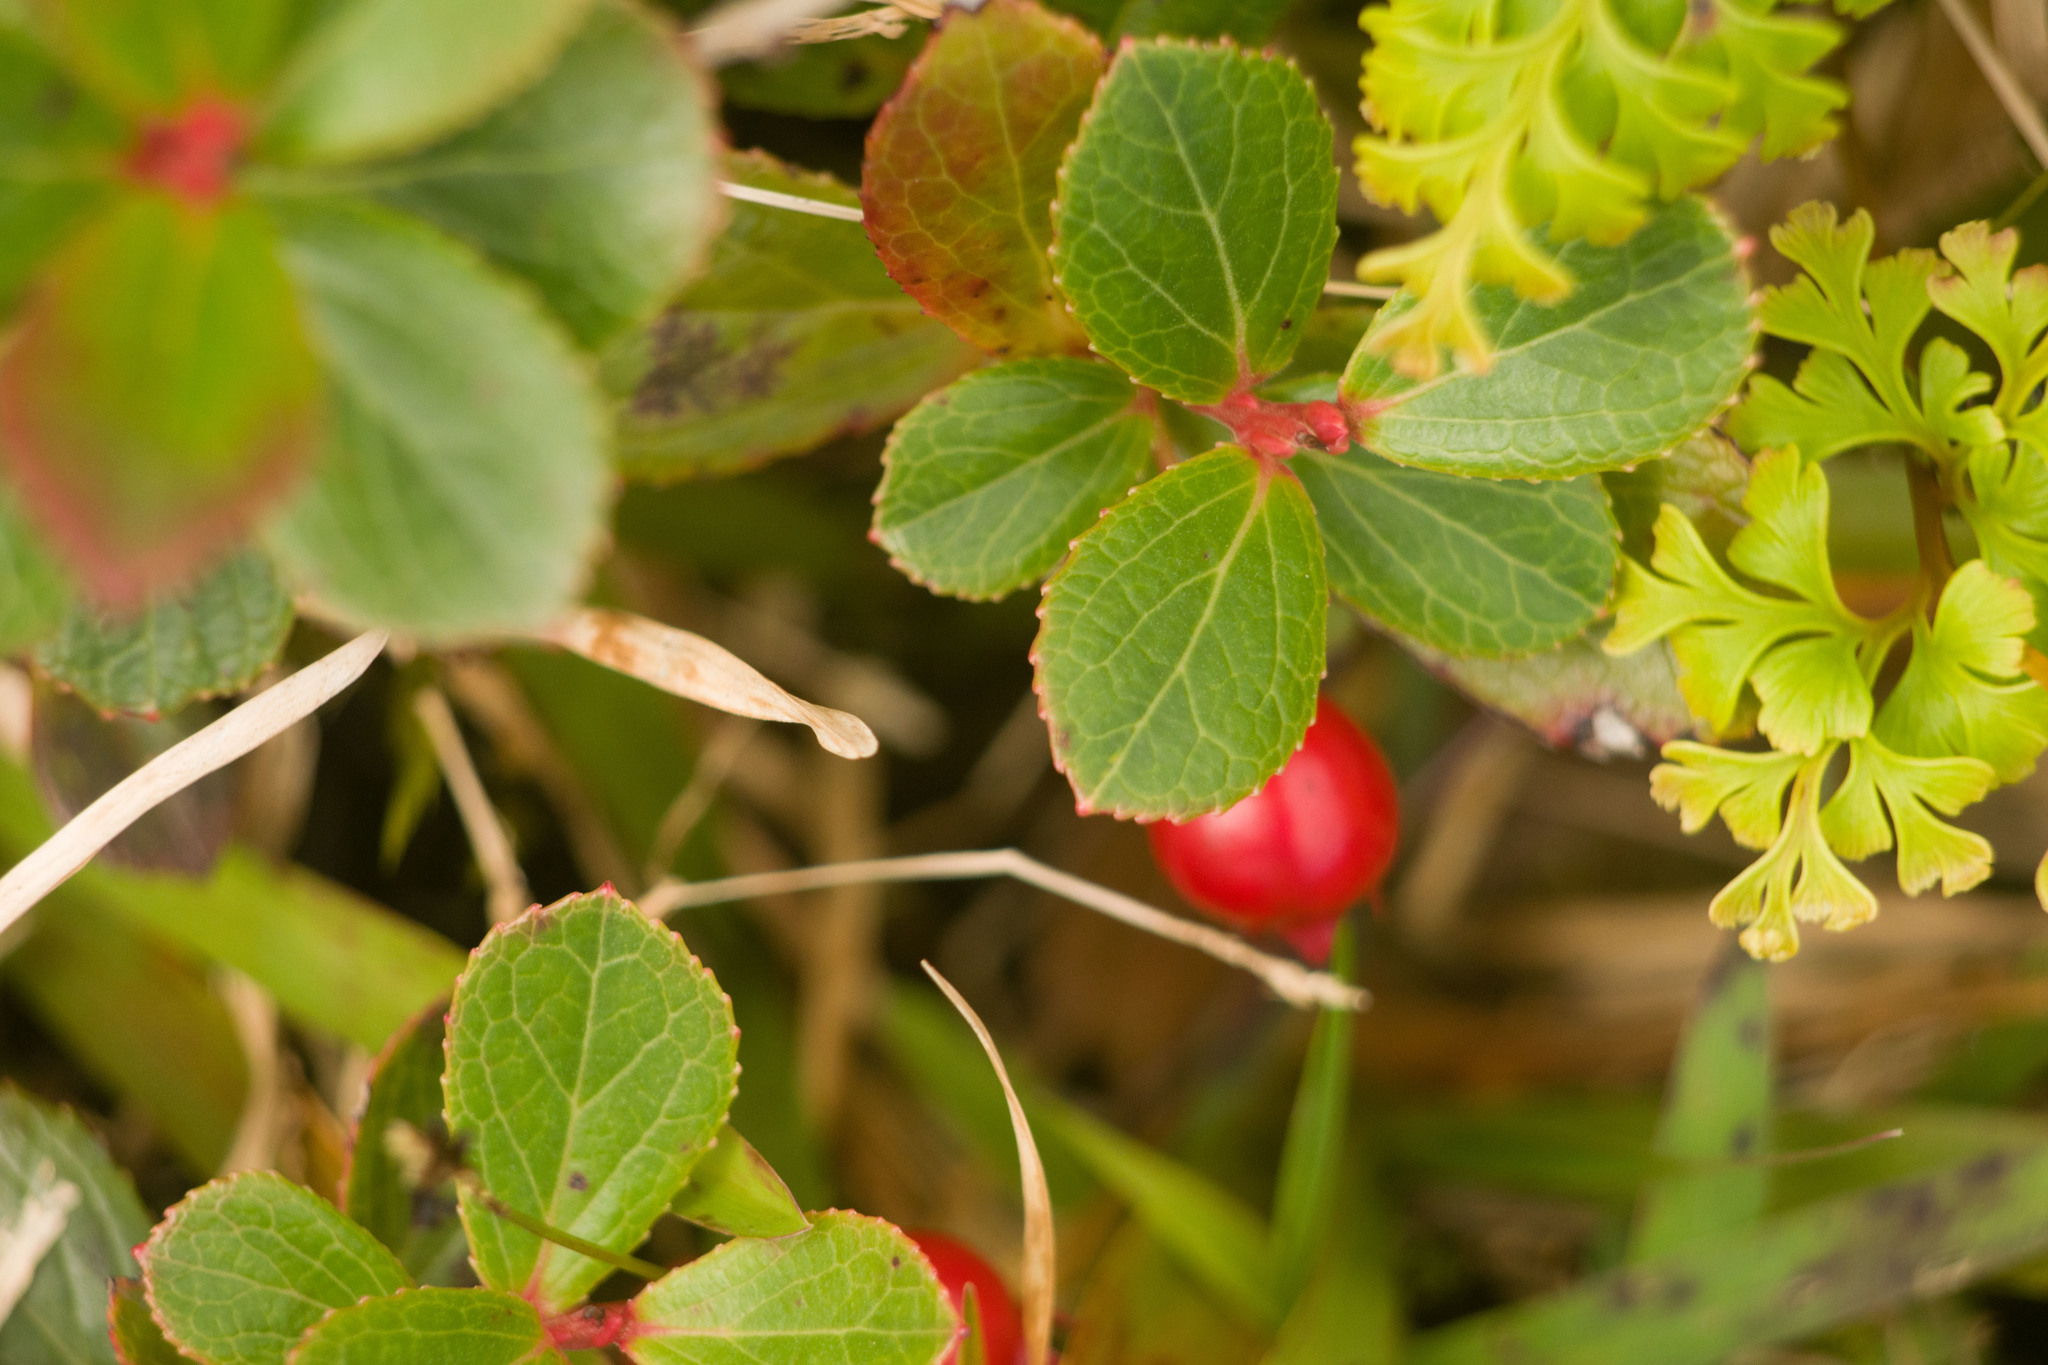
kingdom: Plantae
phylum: Tracheophyta
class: Magnoliopsida
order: Ericales
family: Ericaceae
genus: Vaccinium
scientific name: Vaccinium dentatum
